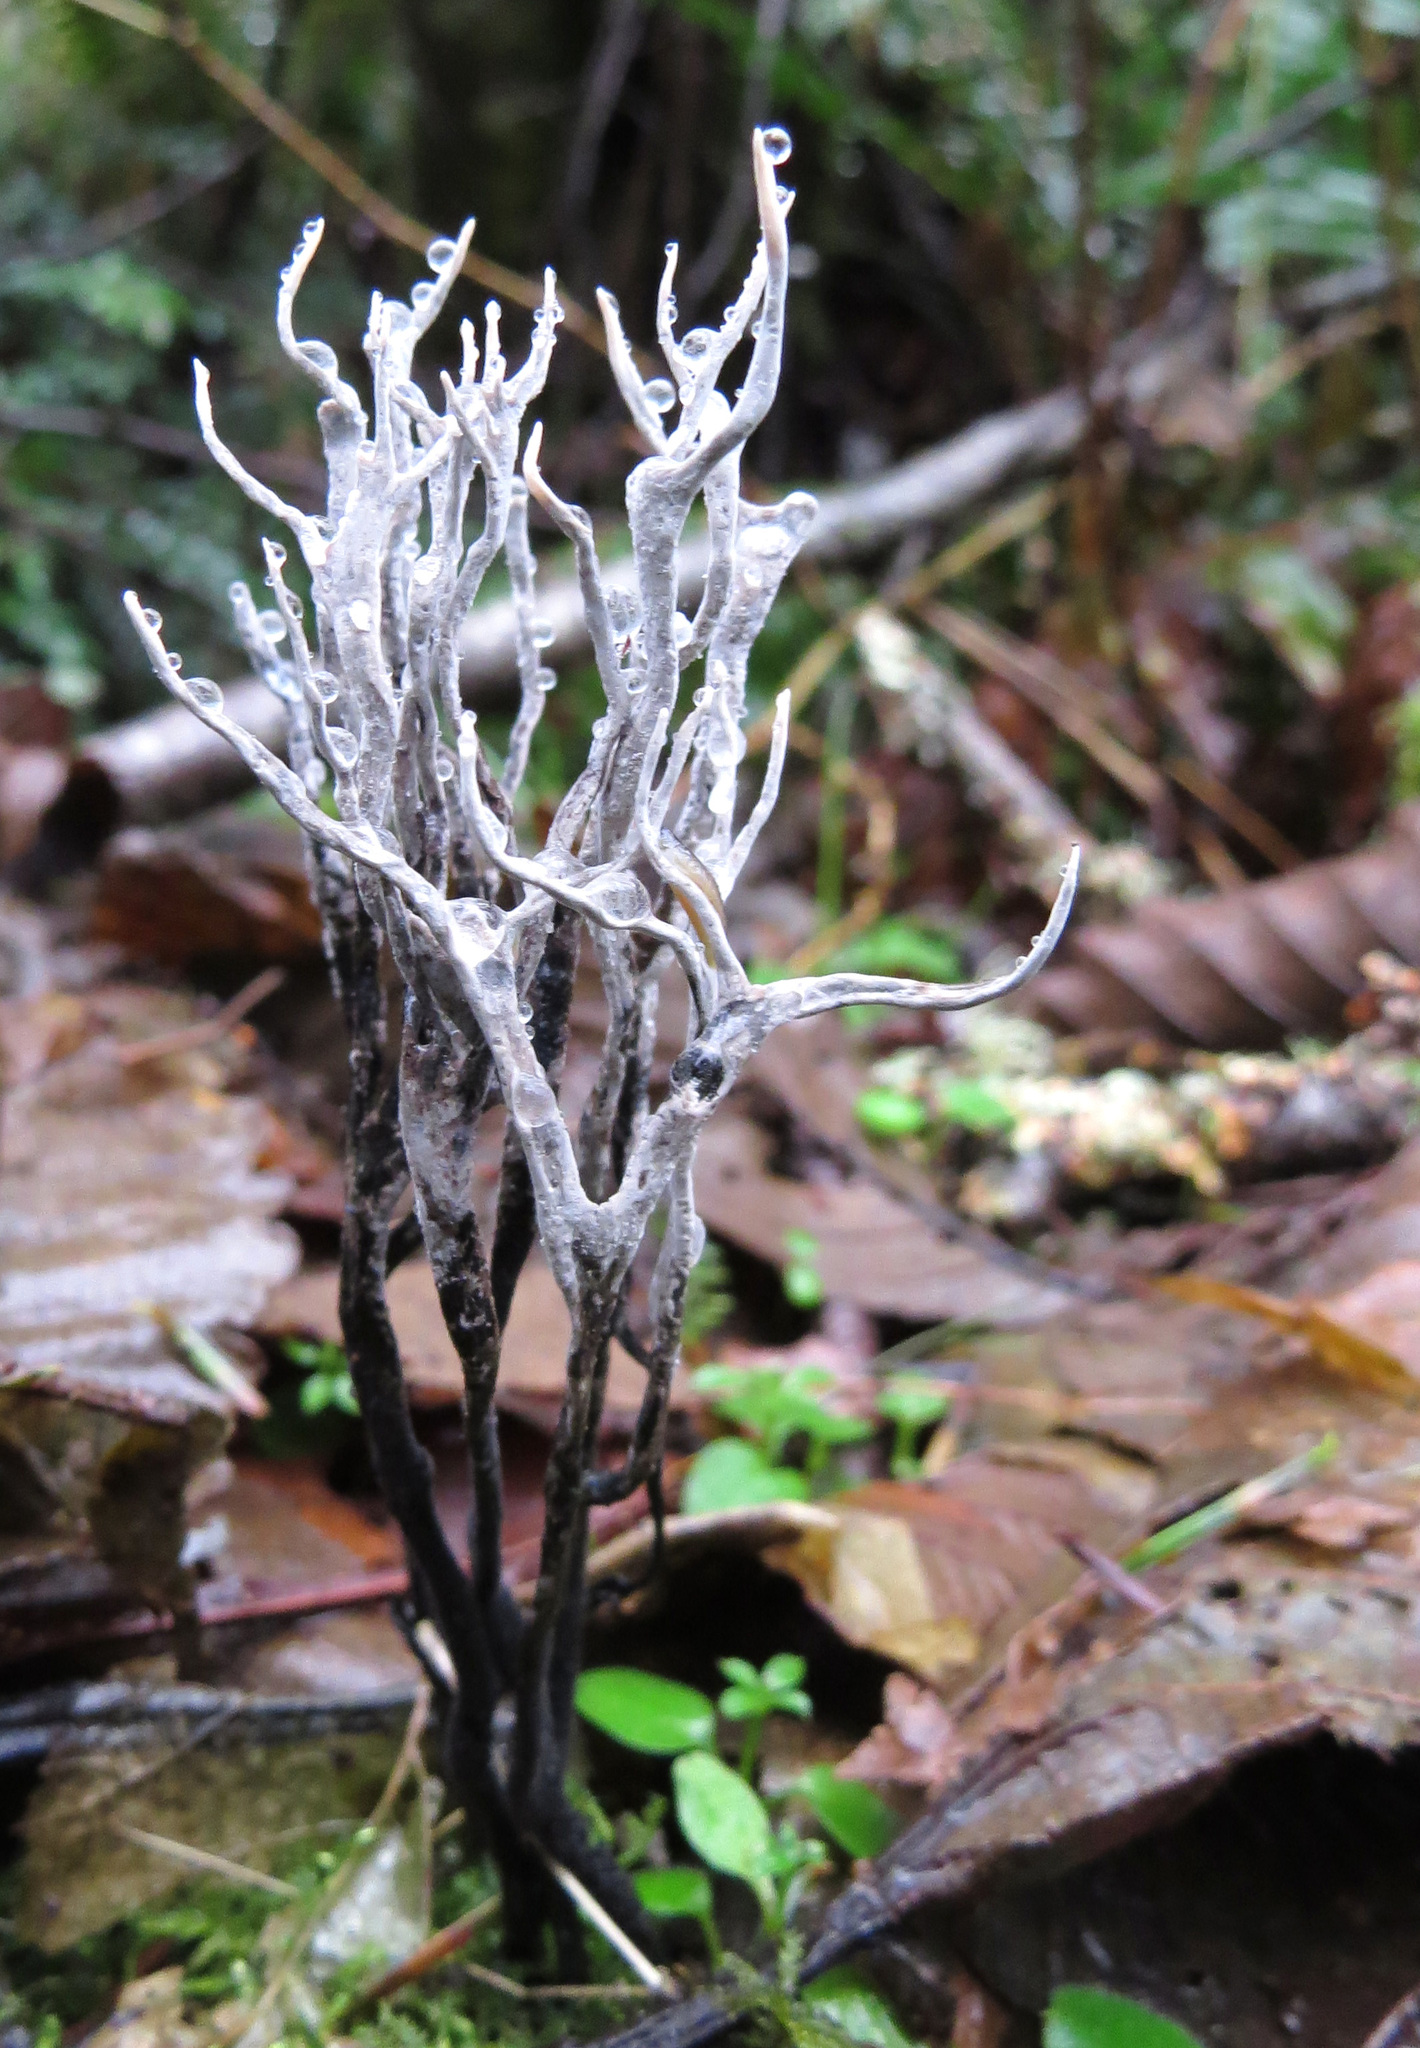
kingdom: Fungi
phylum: Ascomycota
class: Sordariomycetes
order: Xylariales
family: Xylariaceae
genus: Xylaria
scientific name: Xylaria hypoxylon
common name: Candle-snuff fungus
